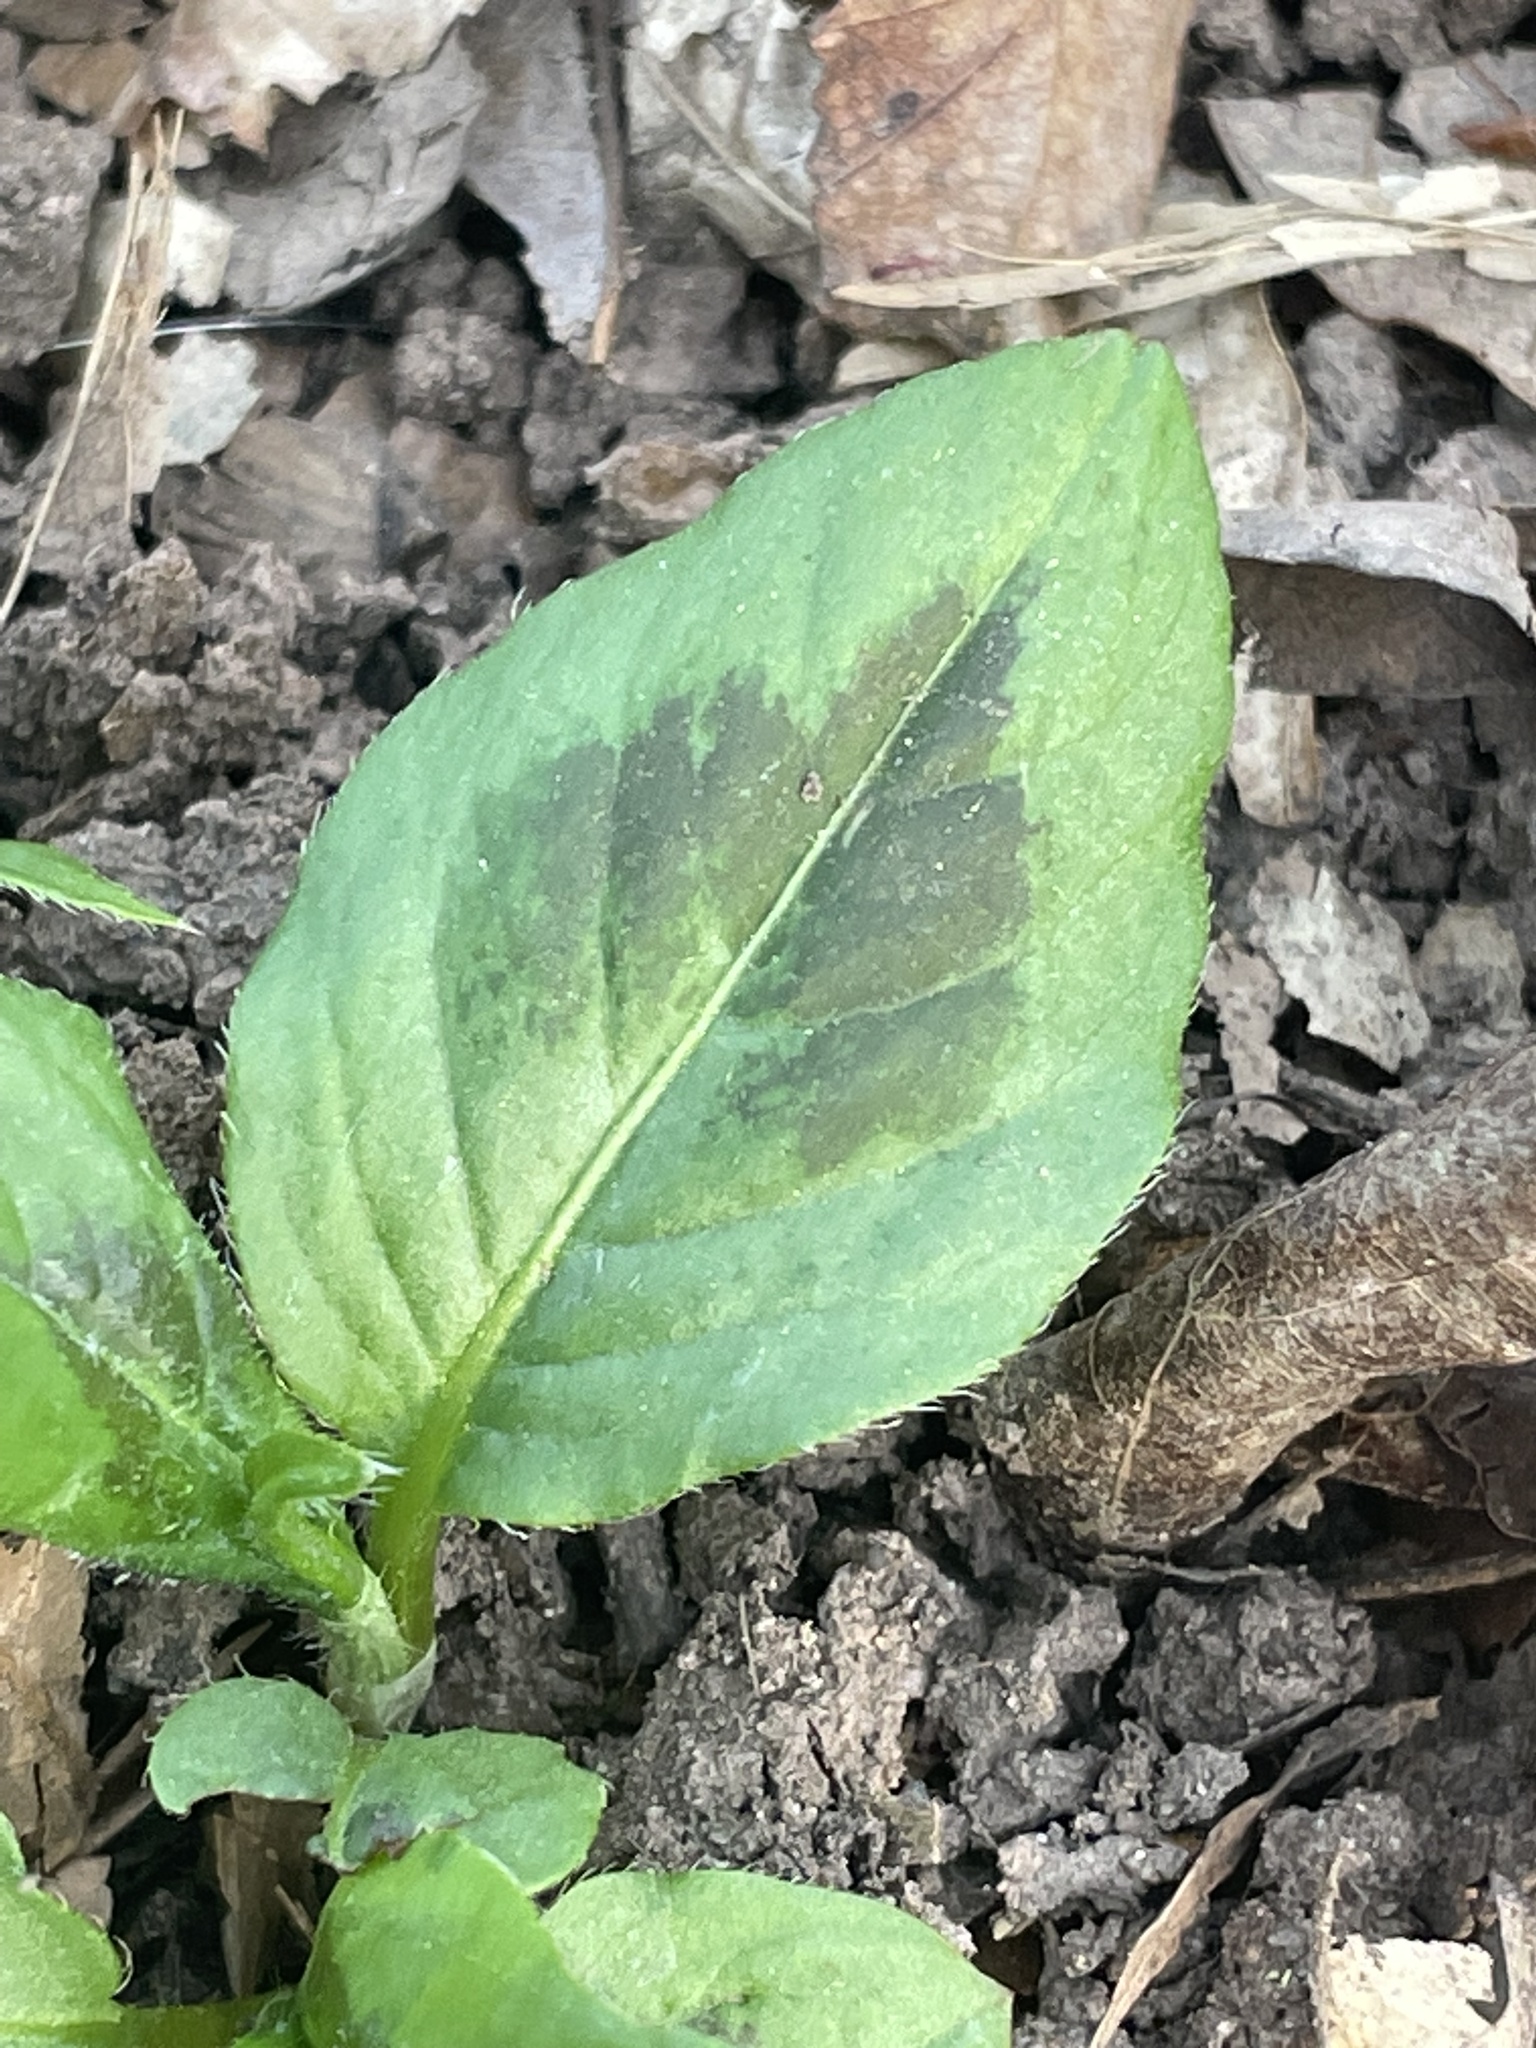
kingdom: Plantae
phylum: Tracheophyta
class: Magnoliopsida
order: Caryophyllales
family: Polygonaceae
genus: Persicaria
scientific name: Persicaria virginiana
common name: Jumpseed
